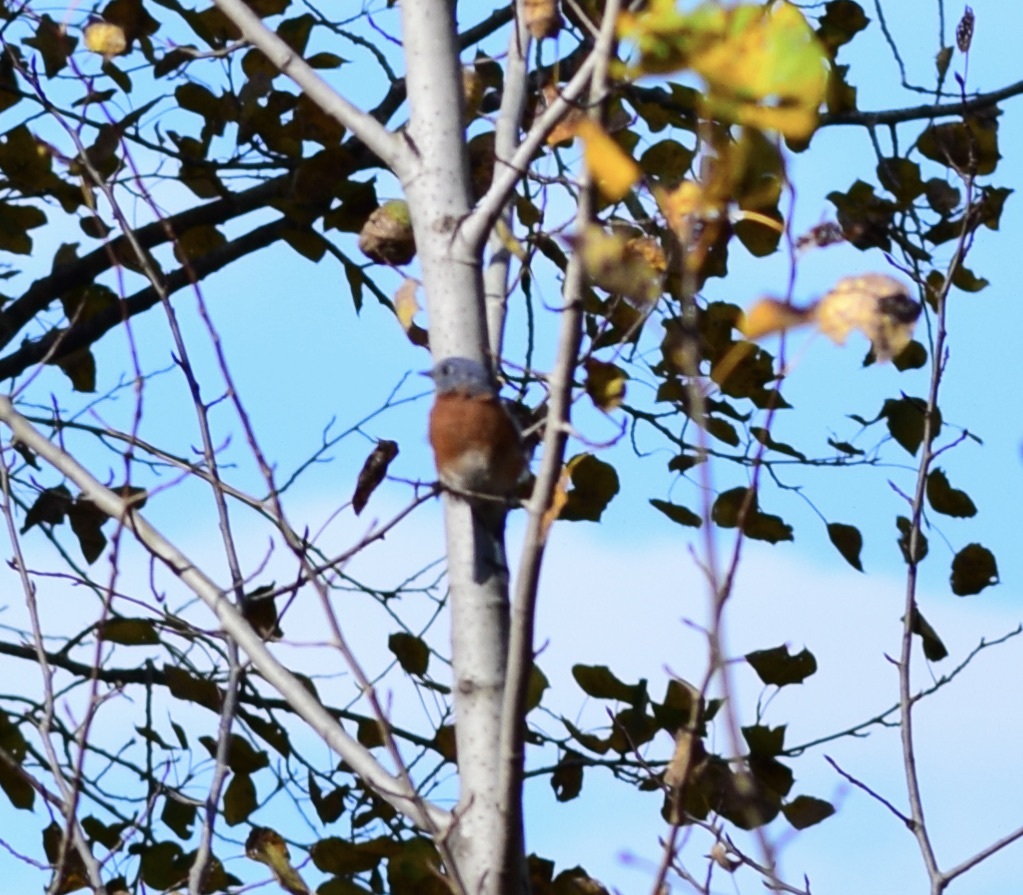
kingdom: Animalia
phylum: Chordata
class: Aves
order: Passeriformes
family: Turdidae
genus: Sialia
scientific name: Sialia sialis
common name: Eastern bluebird
